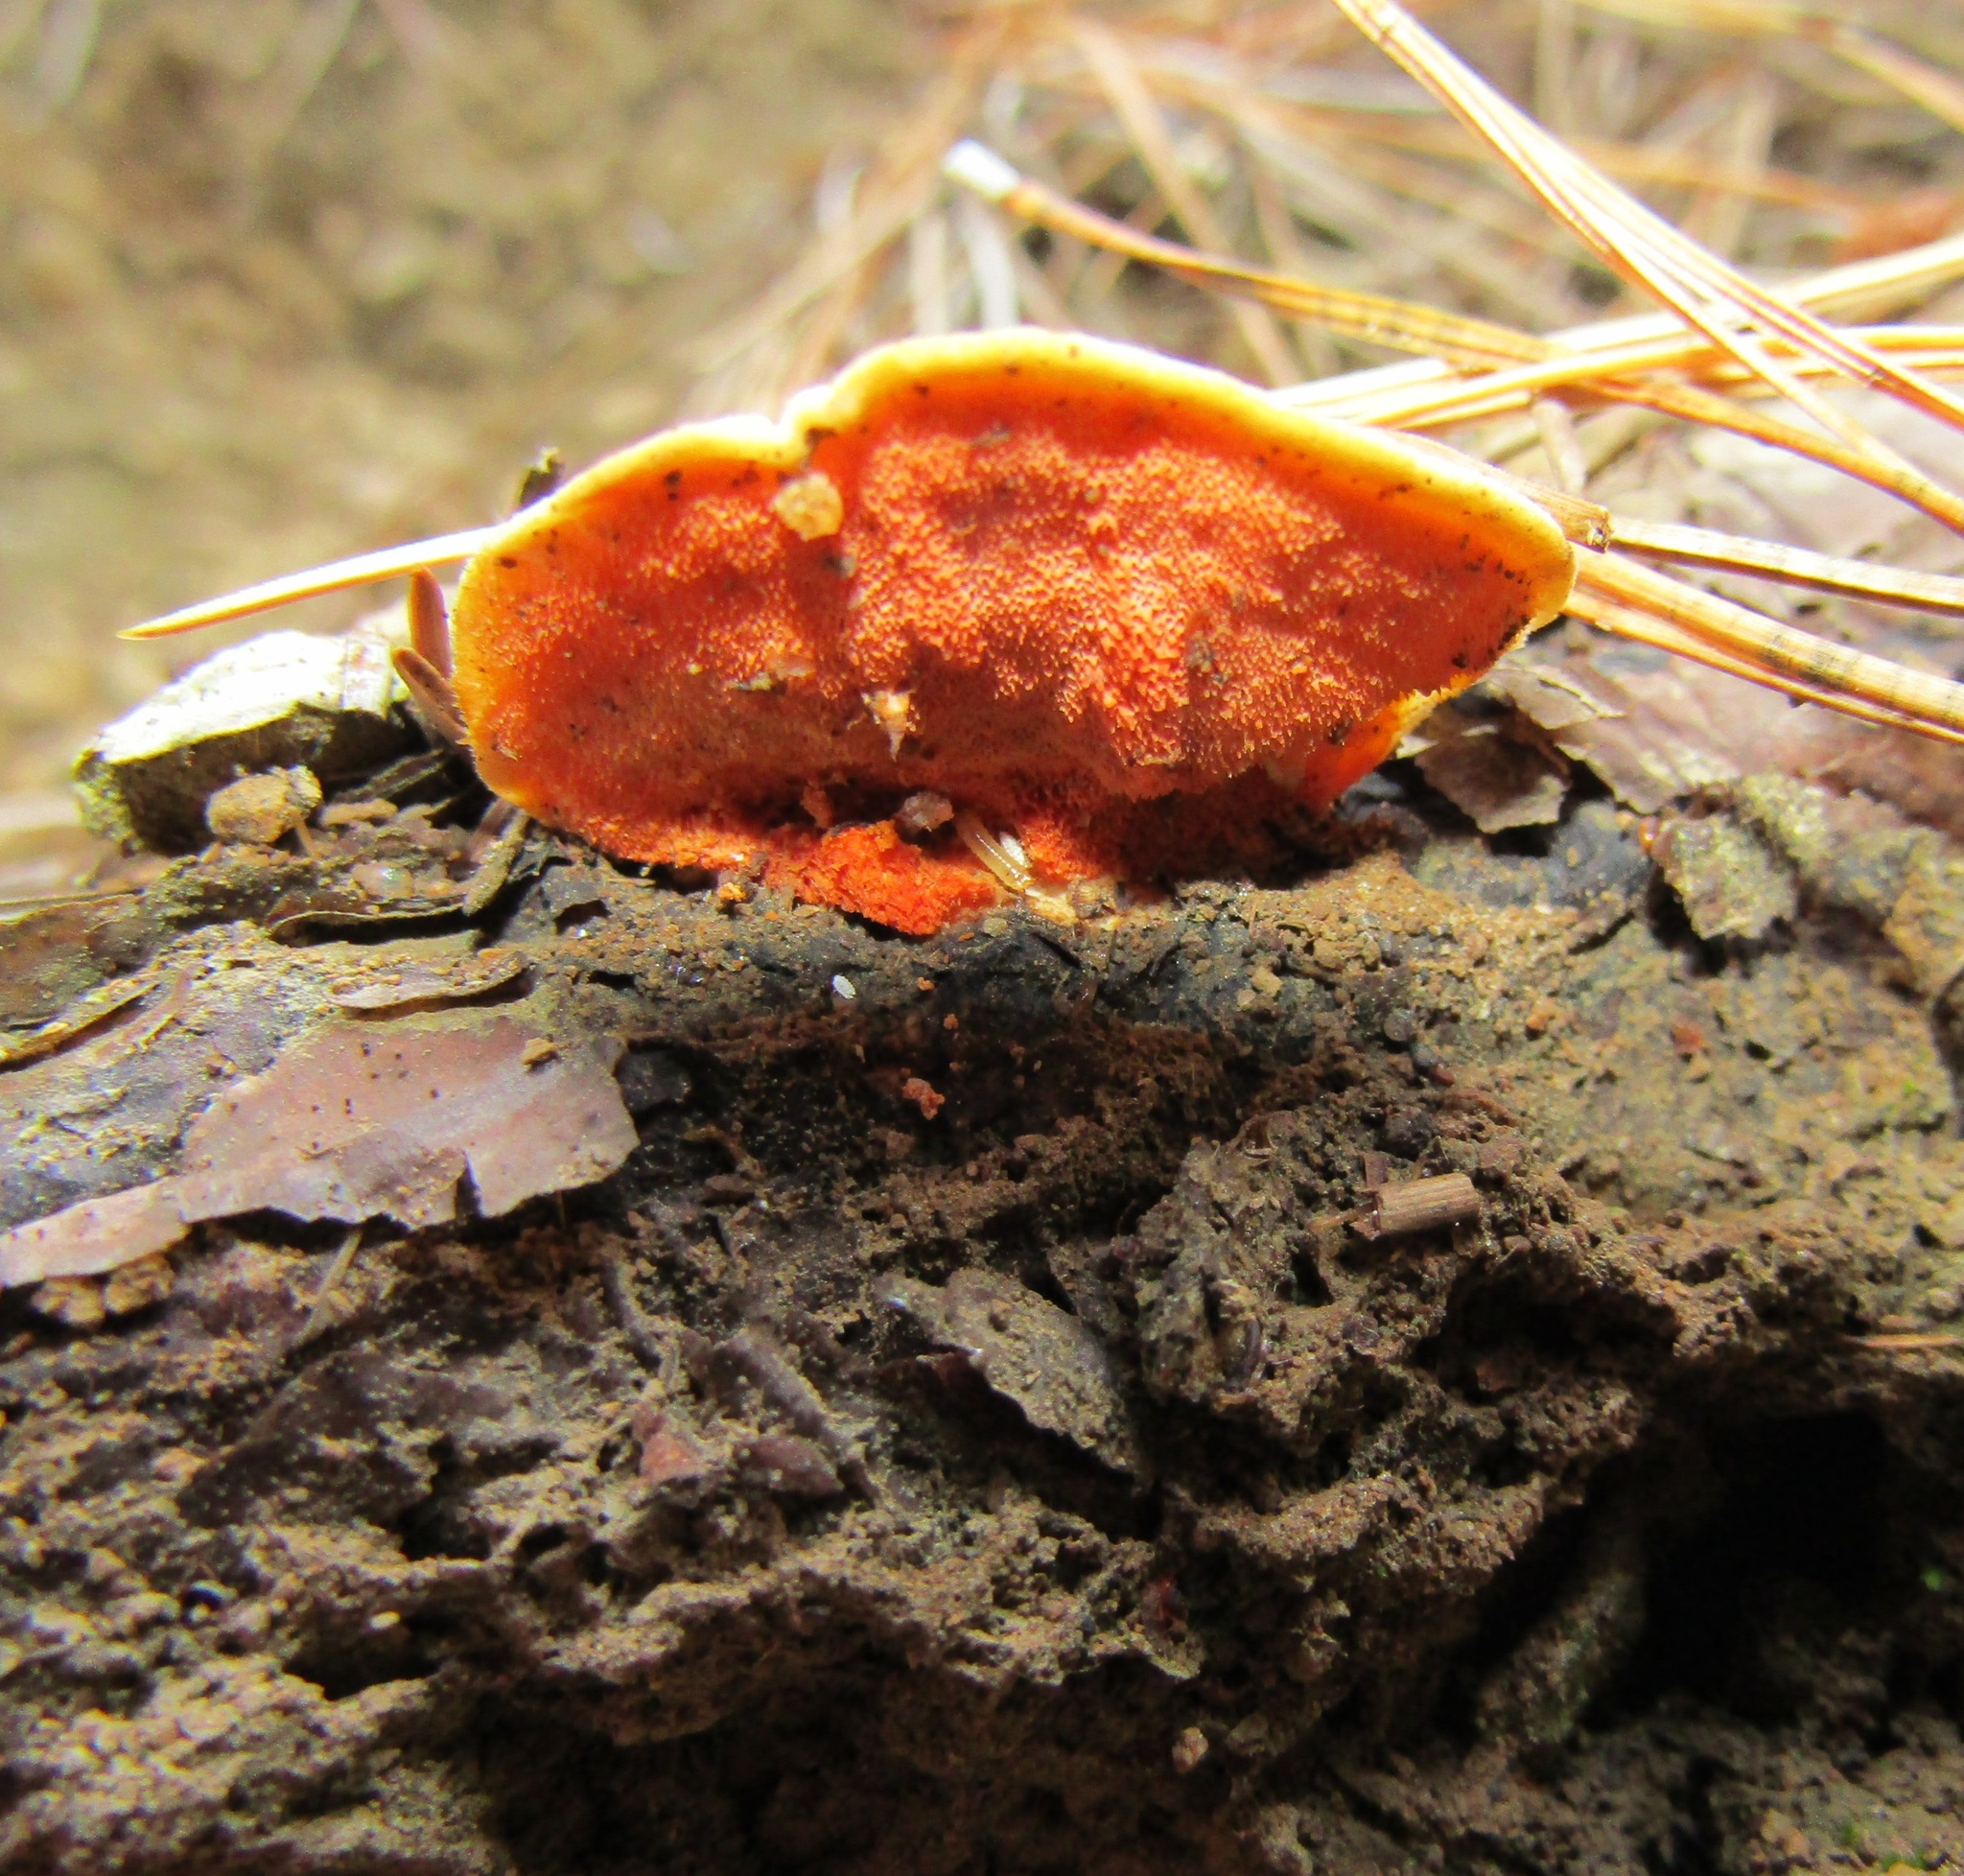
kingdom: Fungi
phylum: Basidiomycota
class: Agaricomycetes
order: Polyporales
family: Polyporaceae
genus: Trametes
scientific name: Trametes coccinea
